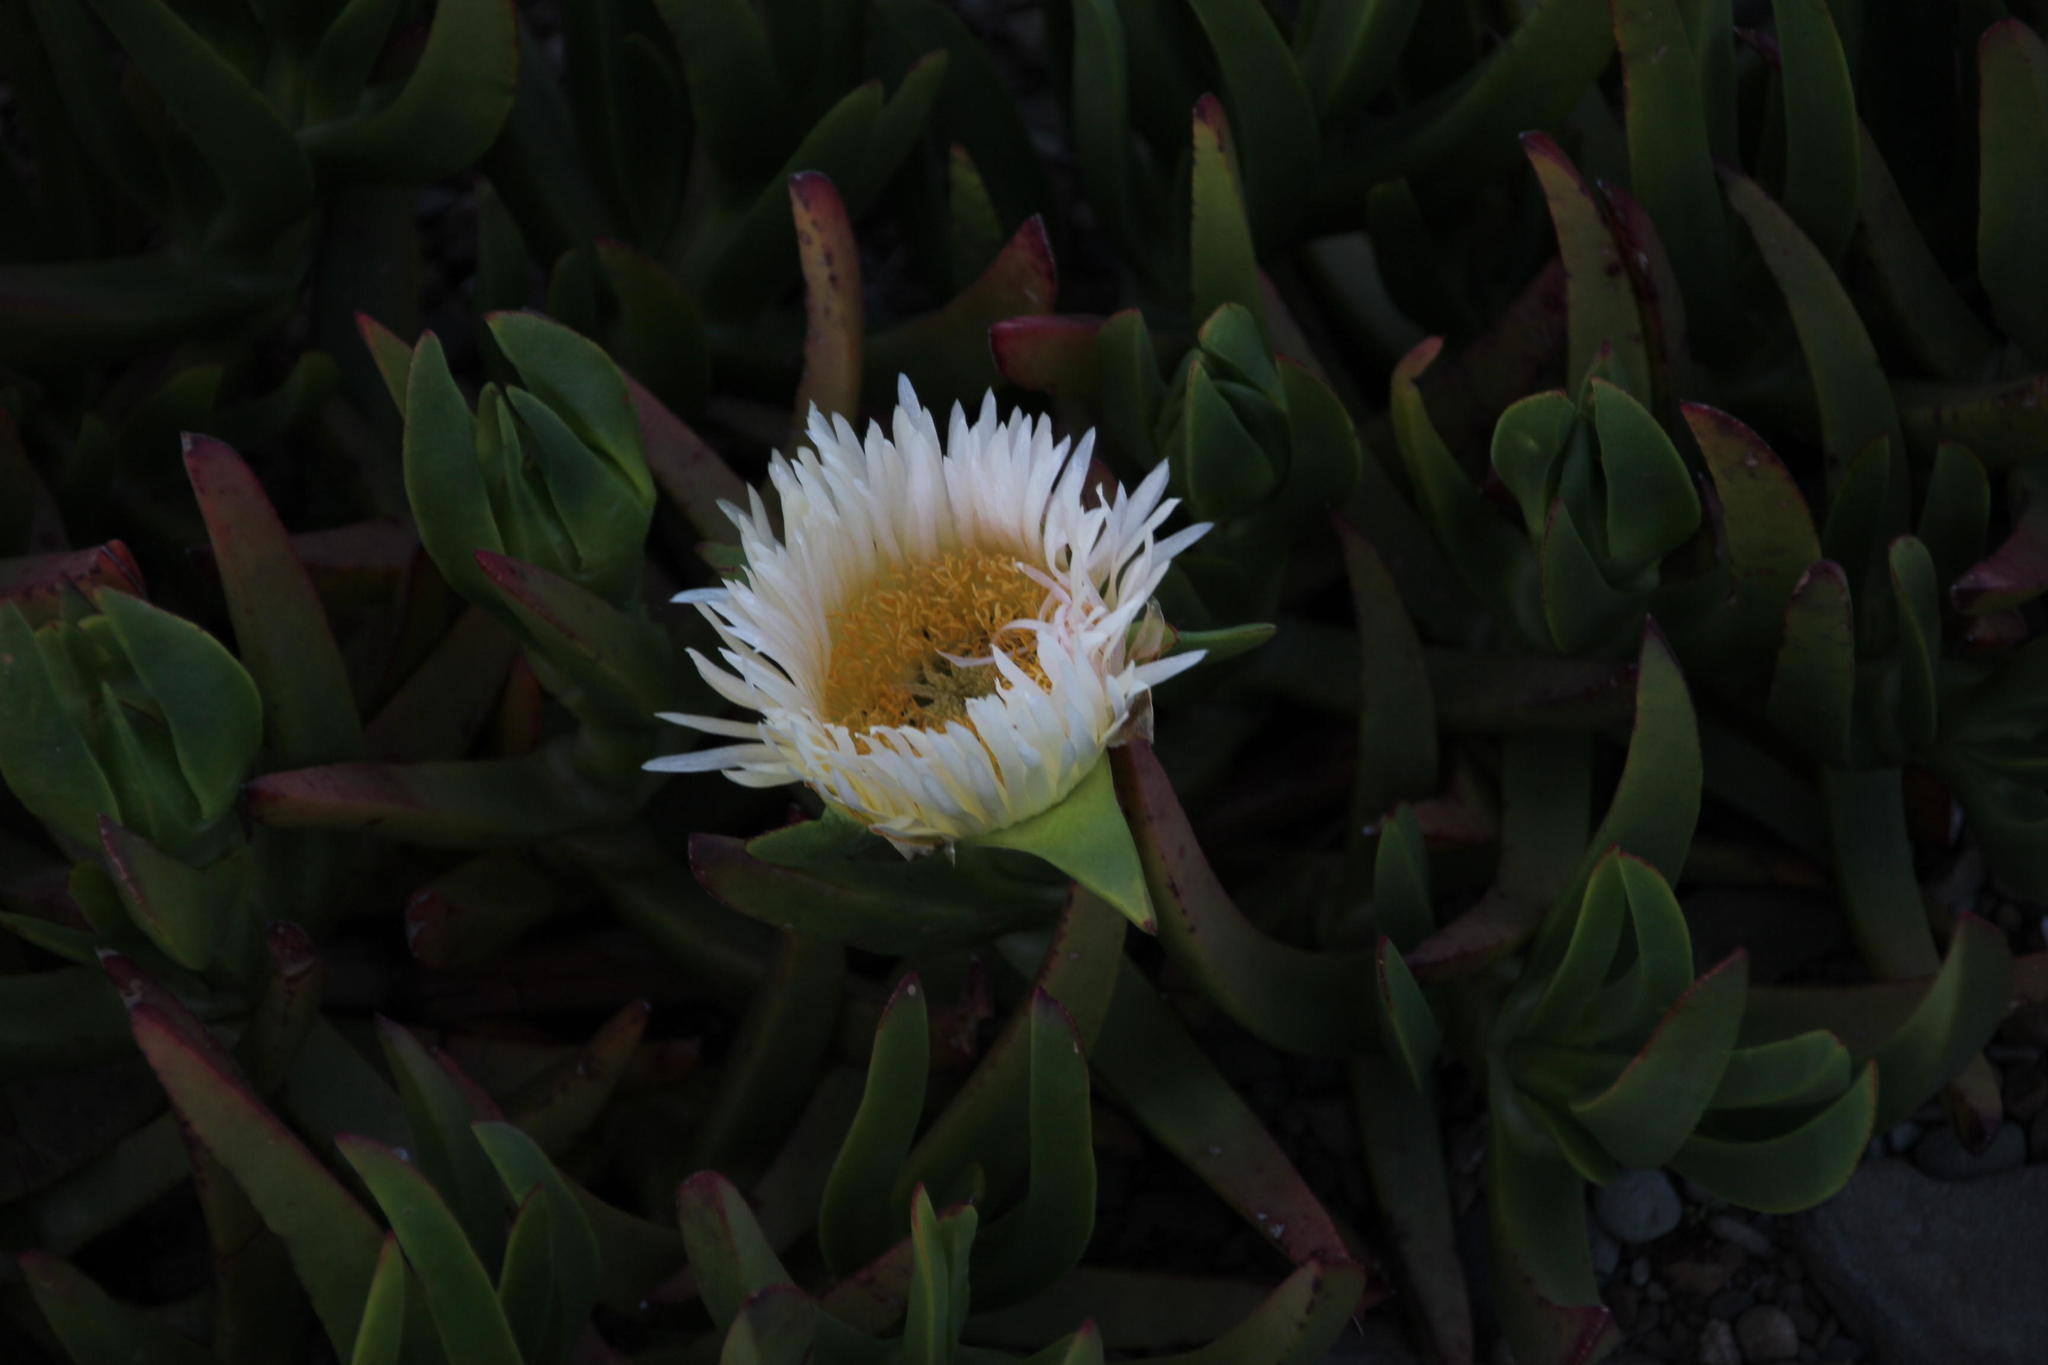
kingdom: Plantae
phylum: Tracheophyta
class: Magnoliopsida
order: Caryophyllales
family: Aizoaceae
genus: Carpobrotus
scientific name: Carpobrotus mellei
